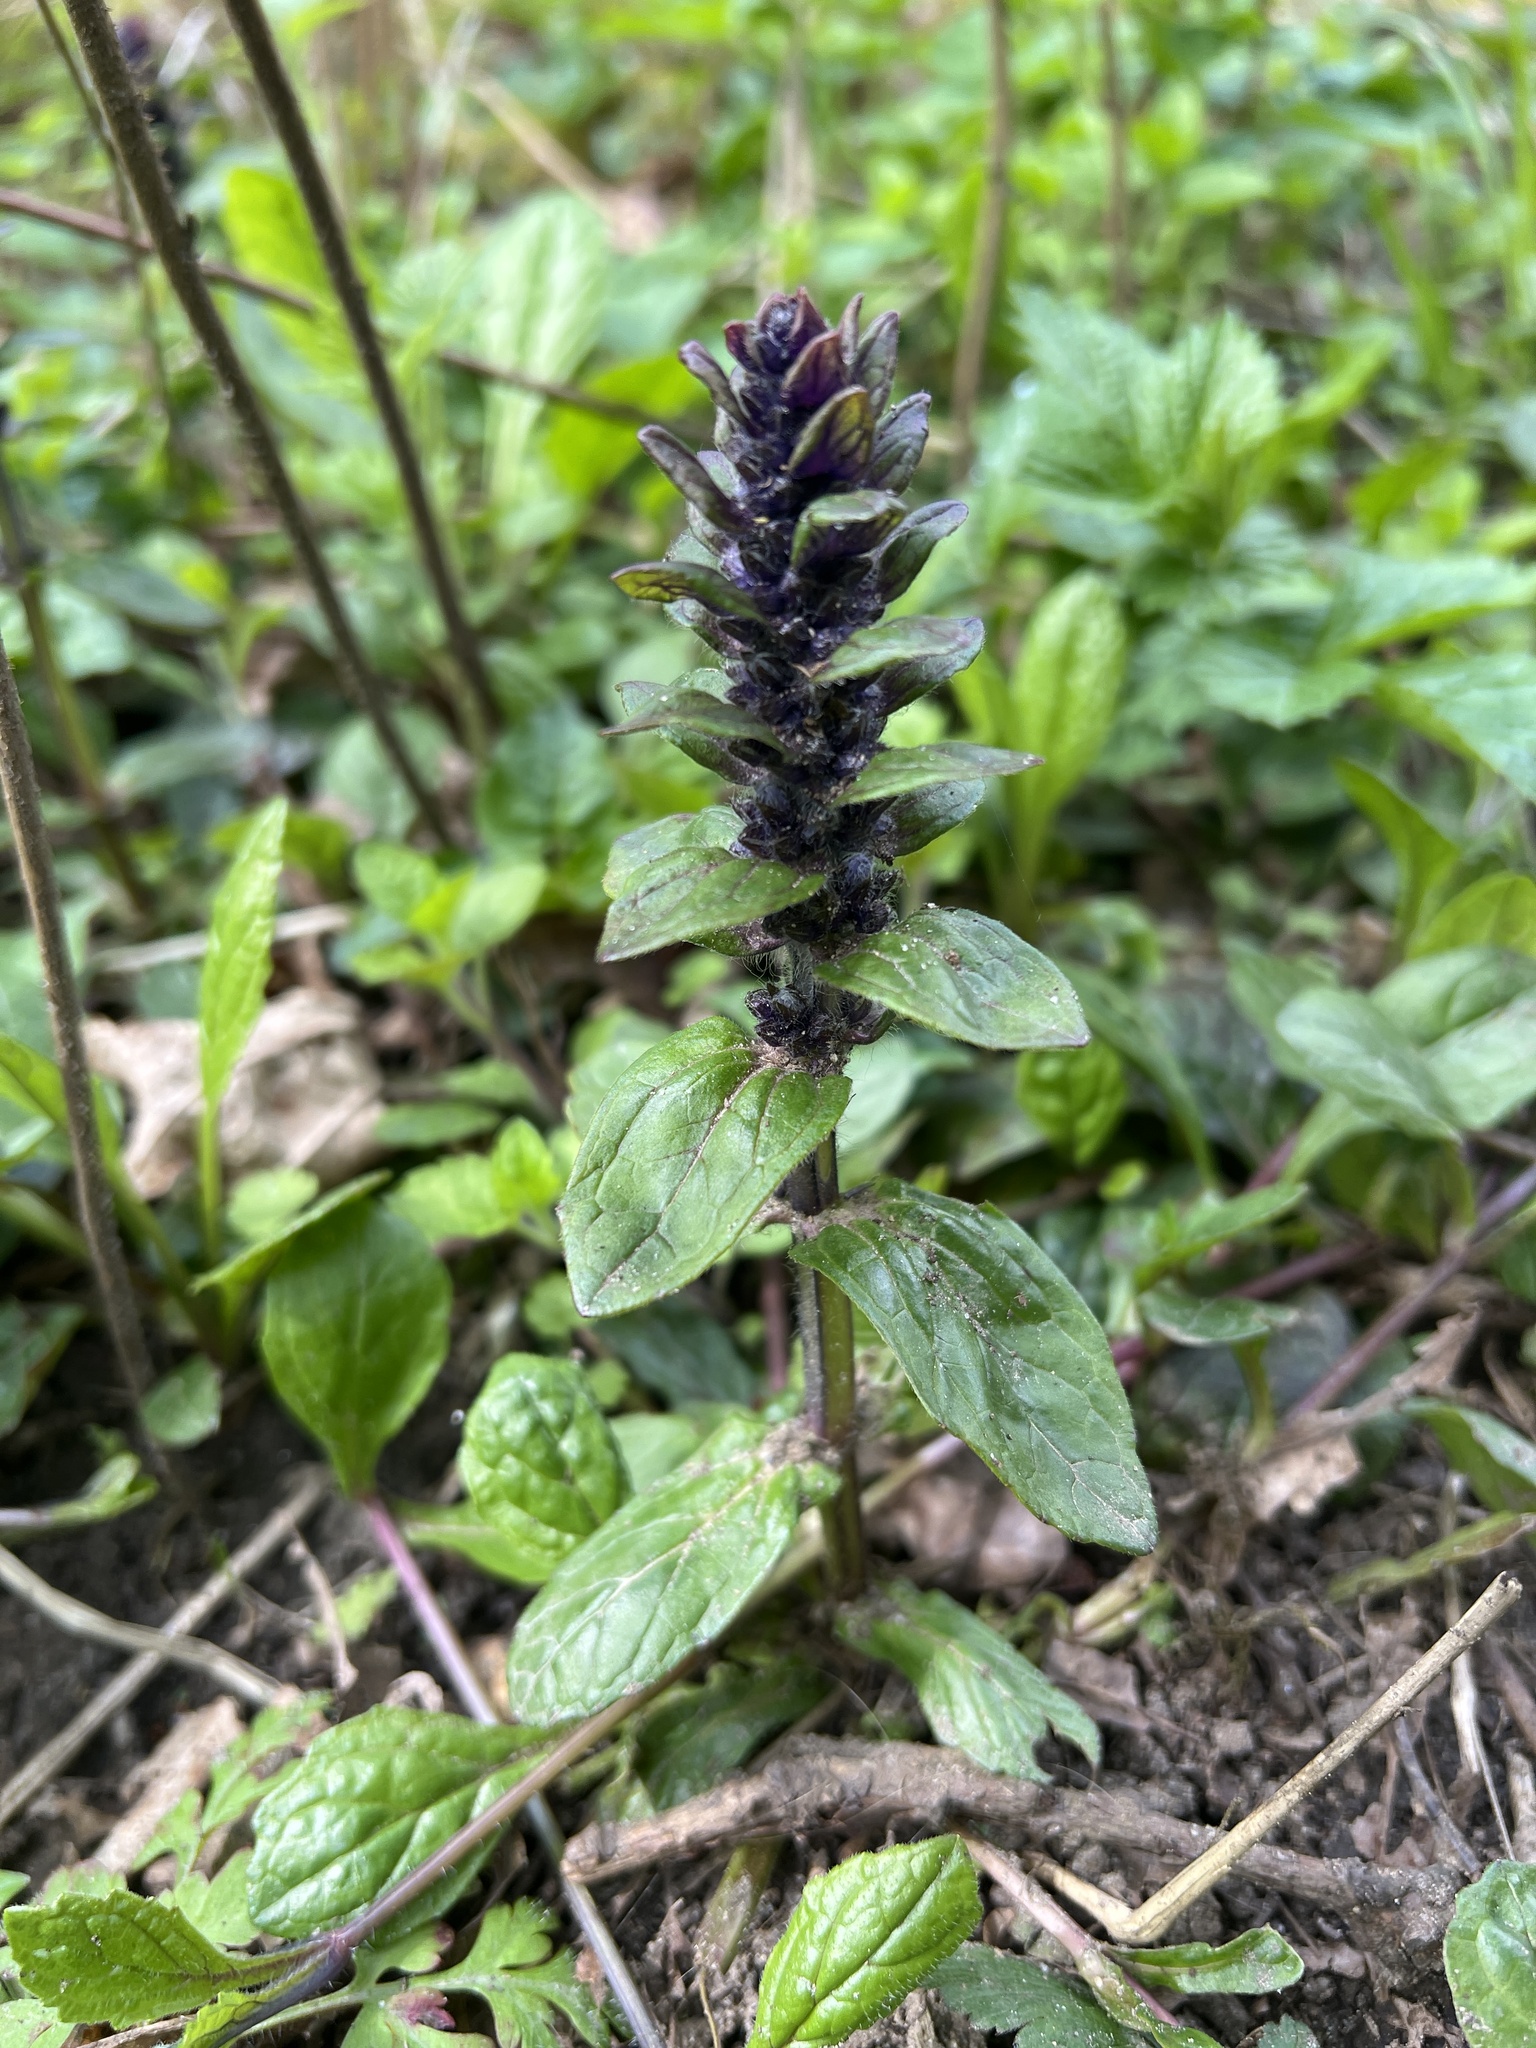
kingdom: Plantae
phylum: Tracheophyta
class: Magnoliopsida
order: Lamiales
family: Lamiaceae
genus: Ajuga
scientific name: Ajuga reptans
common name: Bugle
